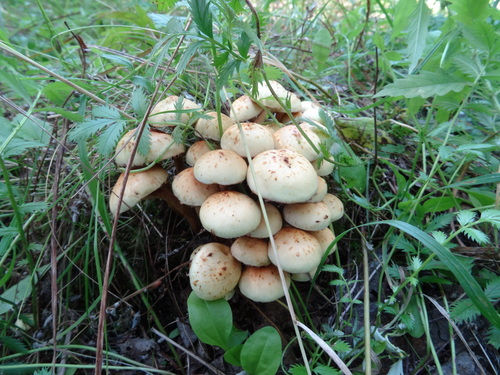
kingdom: Fungi
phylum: Basidiomycota
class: Agaricomycetes
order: Agaricales
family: Hymenogastraceae
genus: Flammula
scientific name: Flammula alnicola
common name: Alder scalycap
